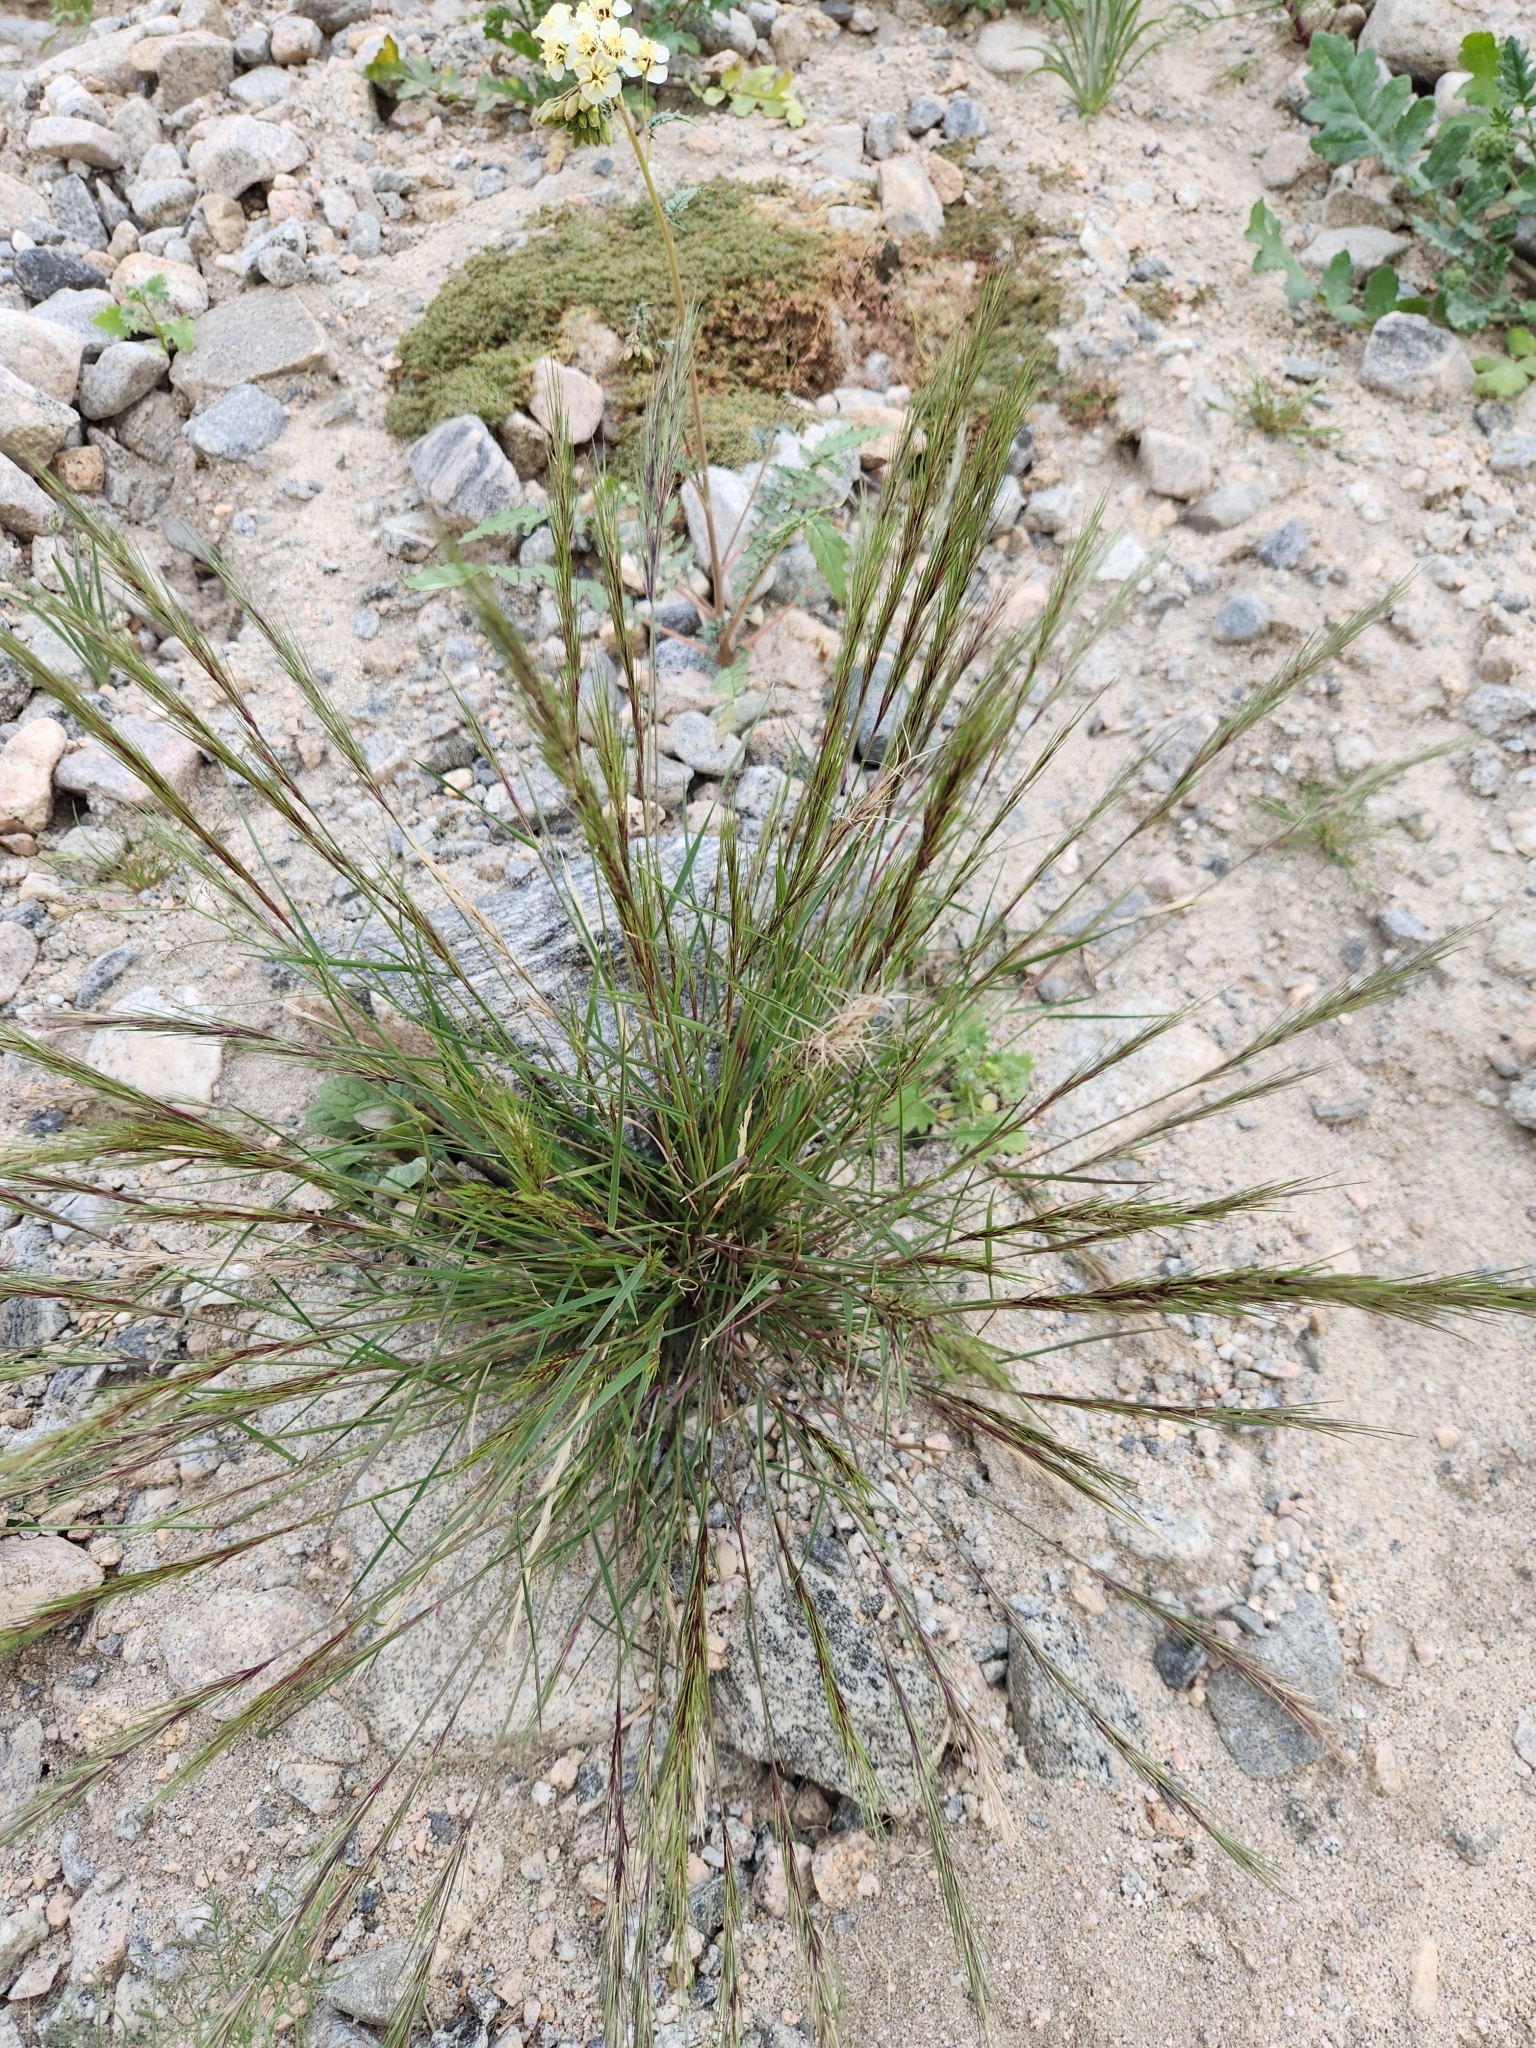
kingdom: Plantae
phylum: Tracheophyta
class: Liliopsida
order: Poales
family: Poaceae
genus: Aristida
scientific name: Aristida adscensionis
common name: Sixweeks threeawn
